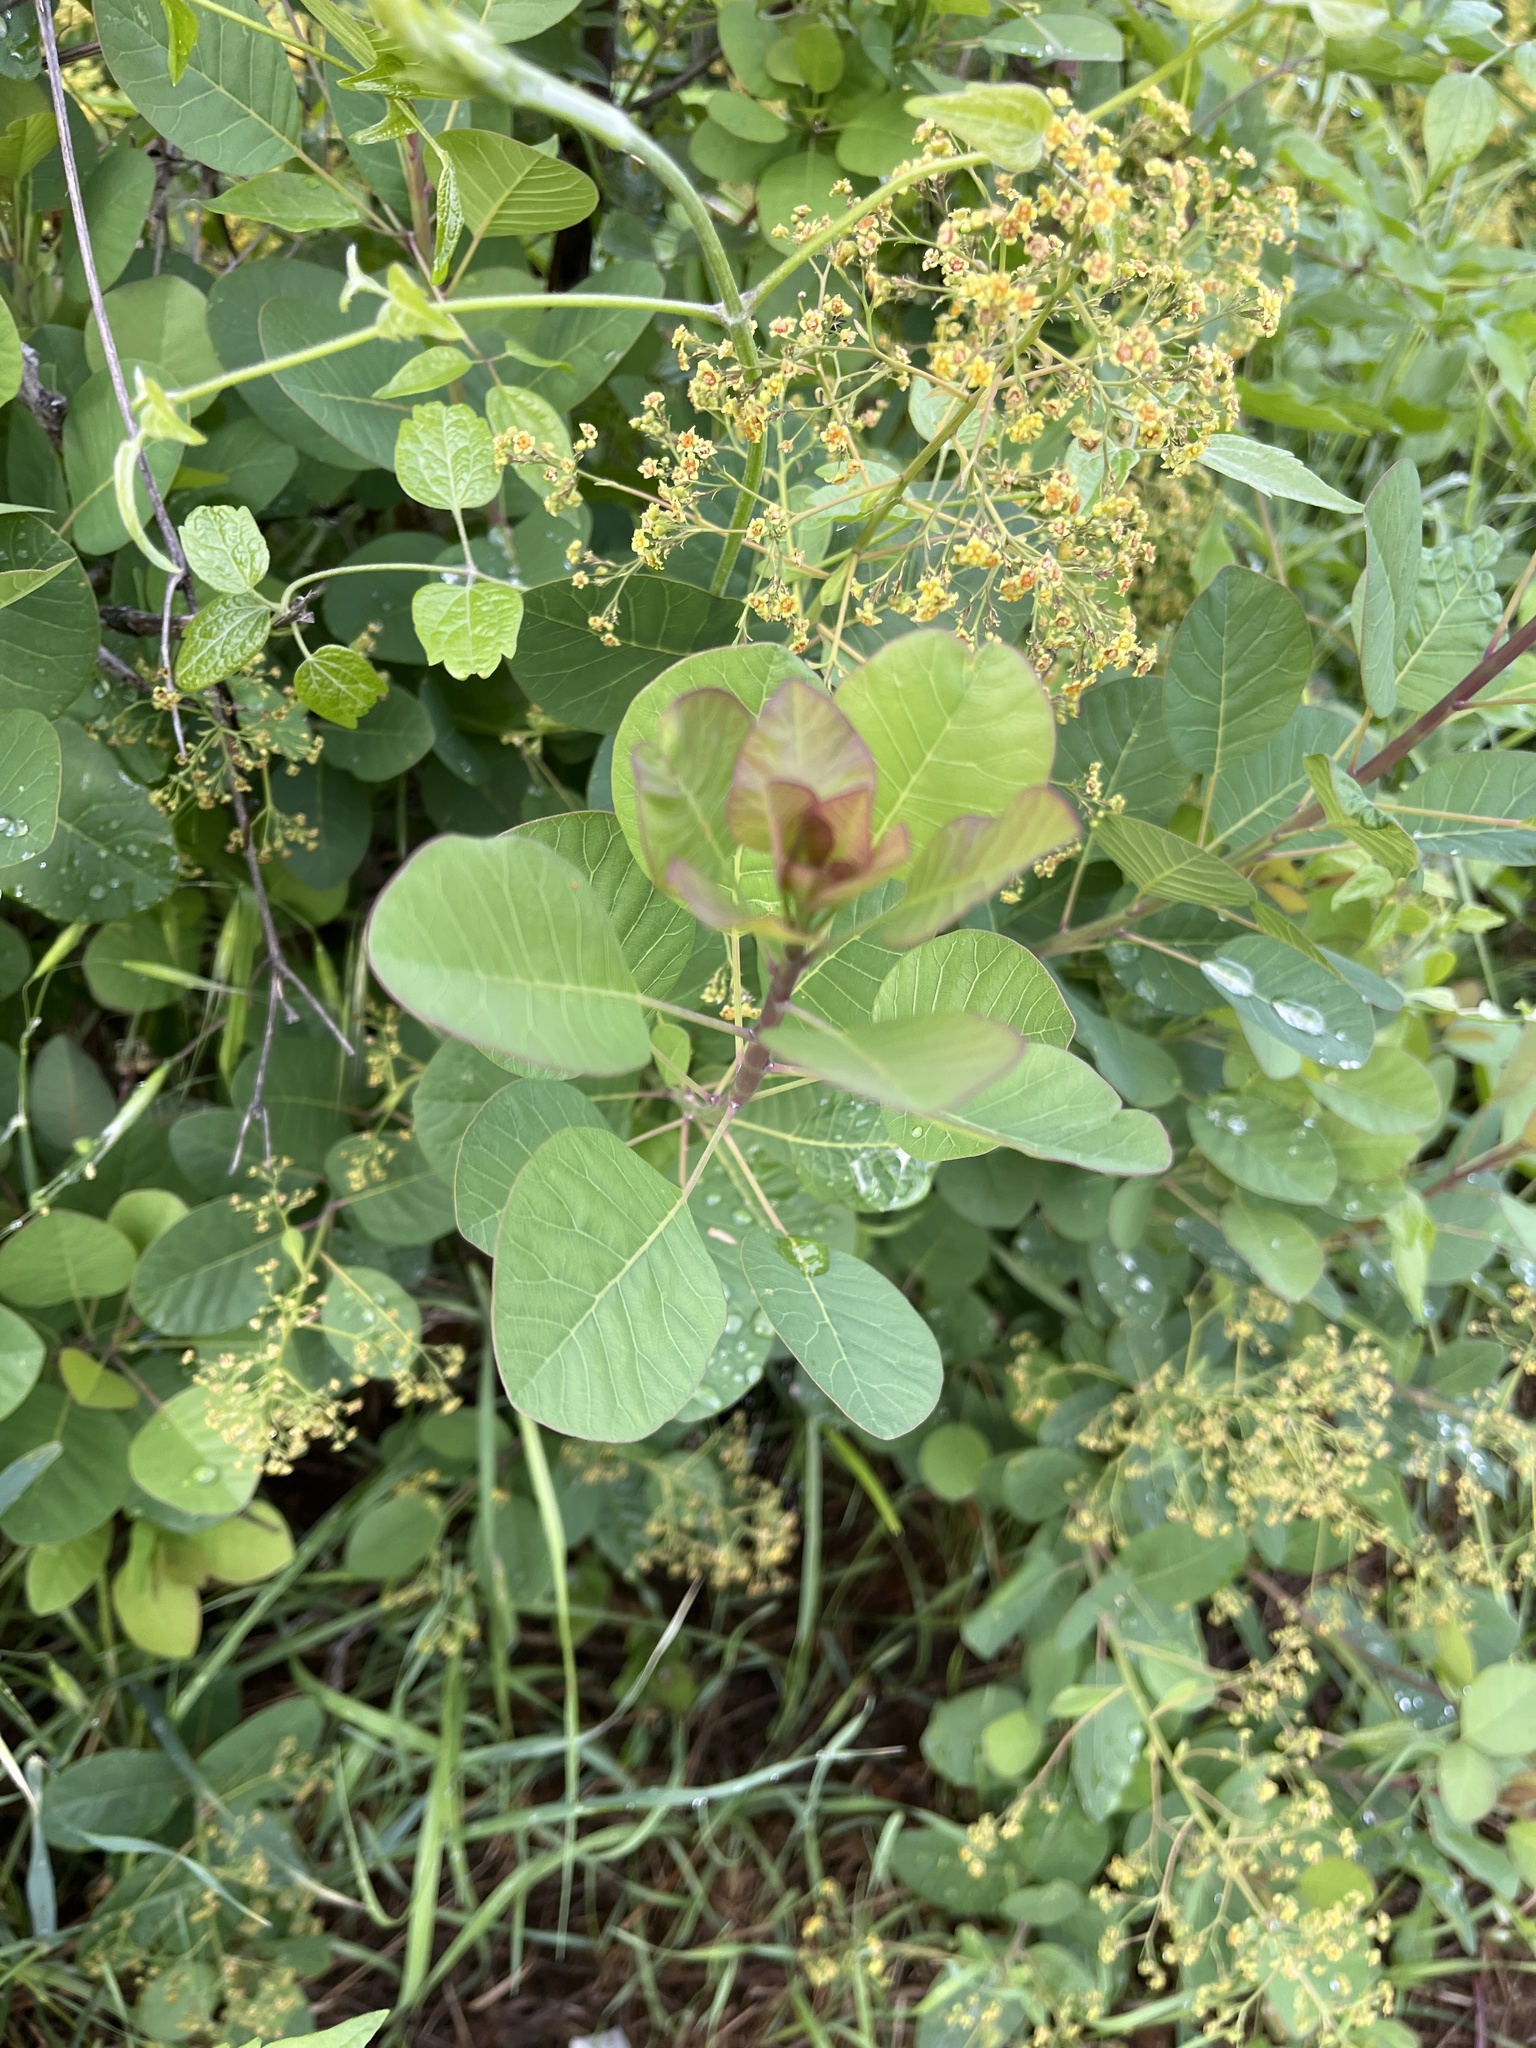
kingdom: Plantae
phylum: Tracheophyta
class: Magnoliopsida
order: Sapindales
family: Anacardiaceae
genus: Cotinus
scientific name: Cotinus coggygria
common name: Smoke-tree
